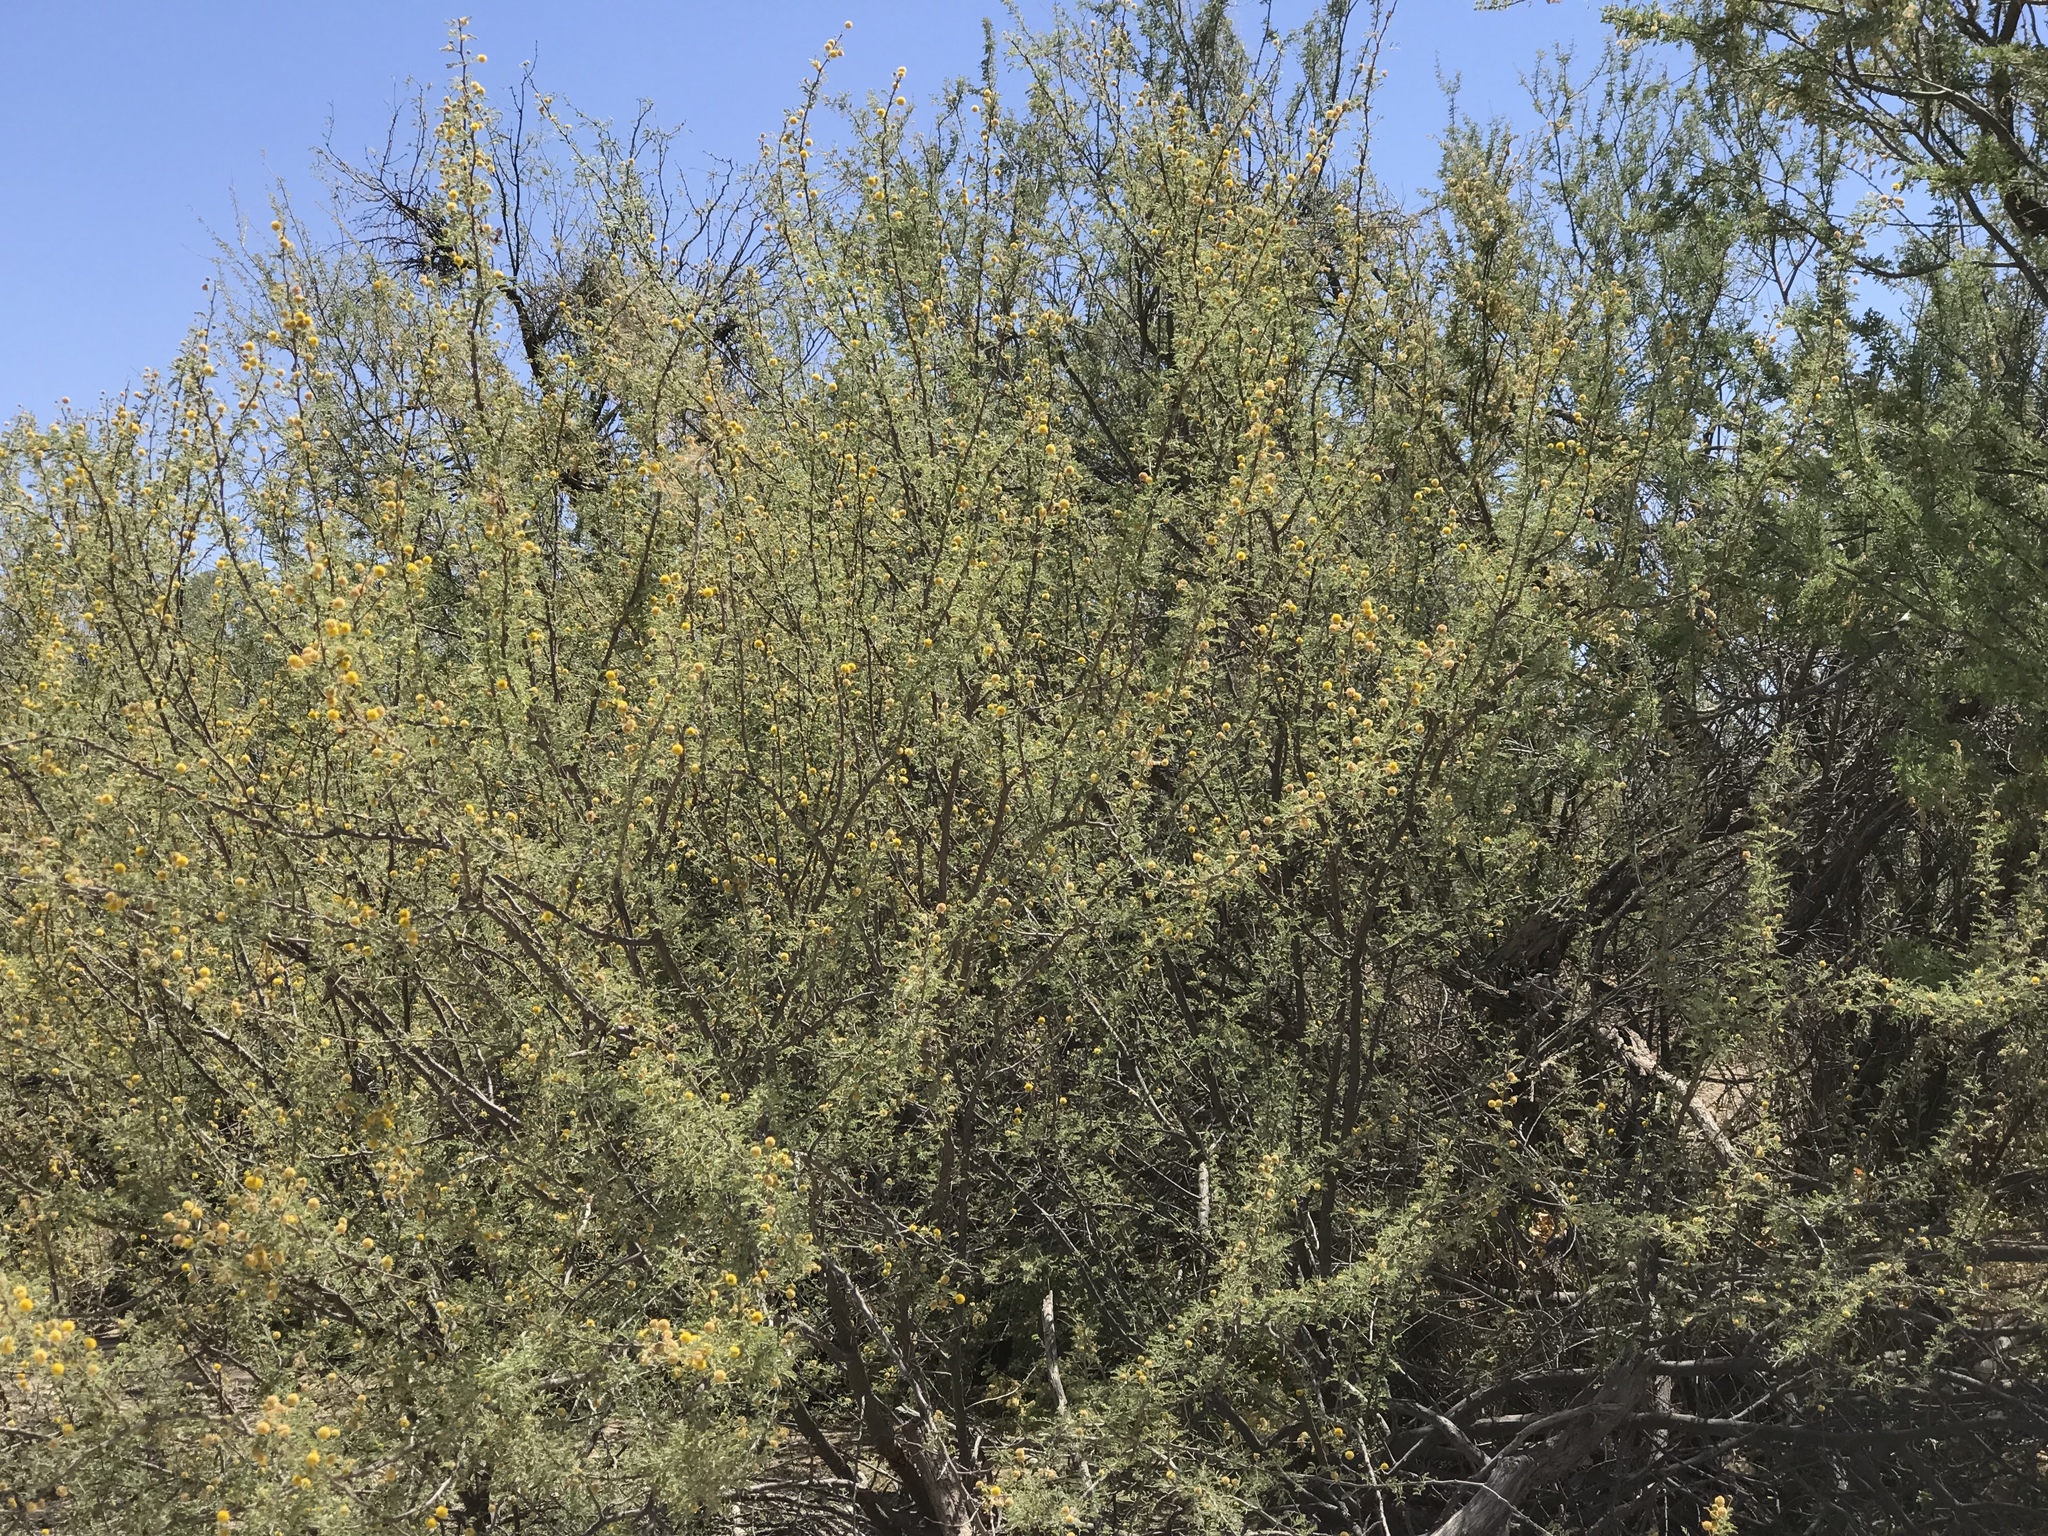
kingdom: Plantae
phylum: Tracheophyta
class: Magnoliopsida
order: Fabales
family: Fabaceae
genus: Vachellia
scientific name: Vachellia constricta
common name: Mescat acacia
